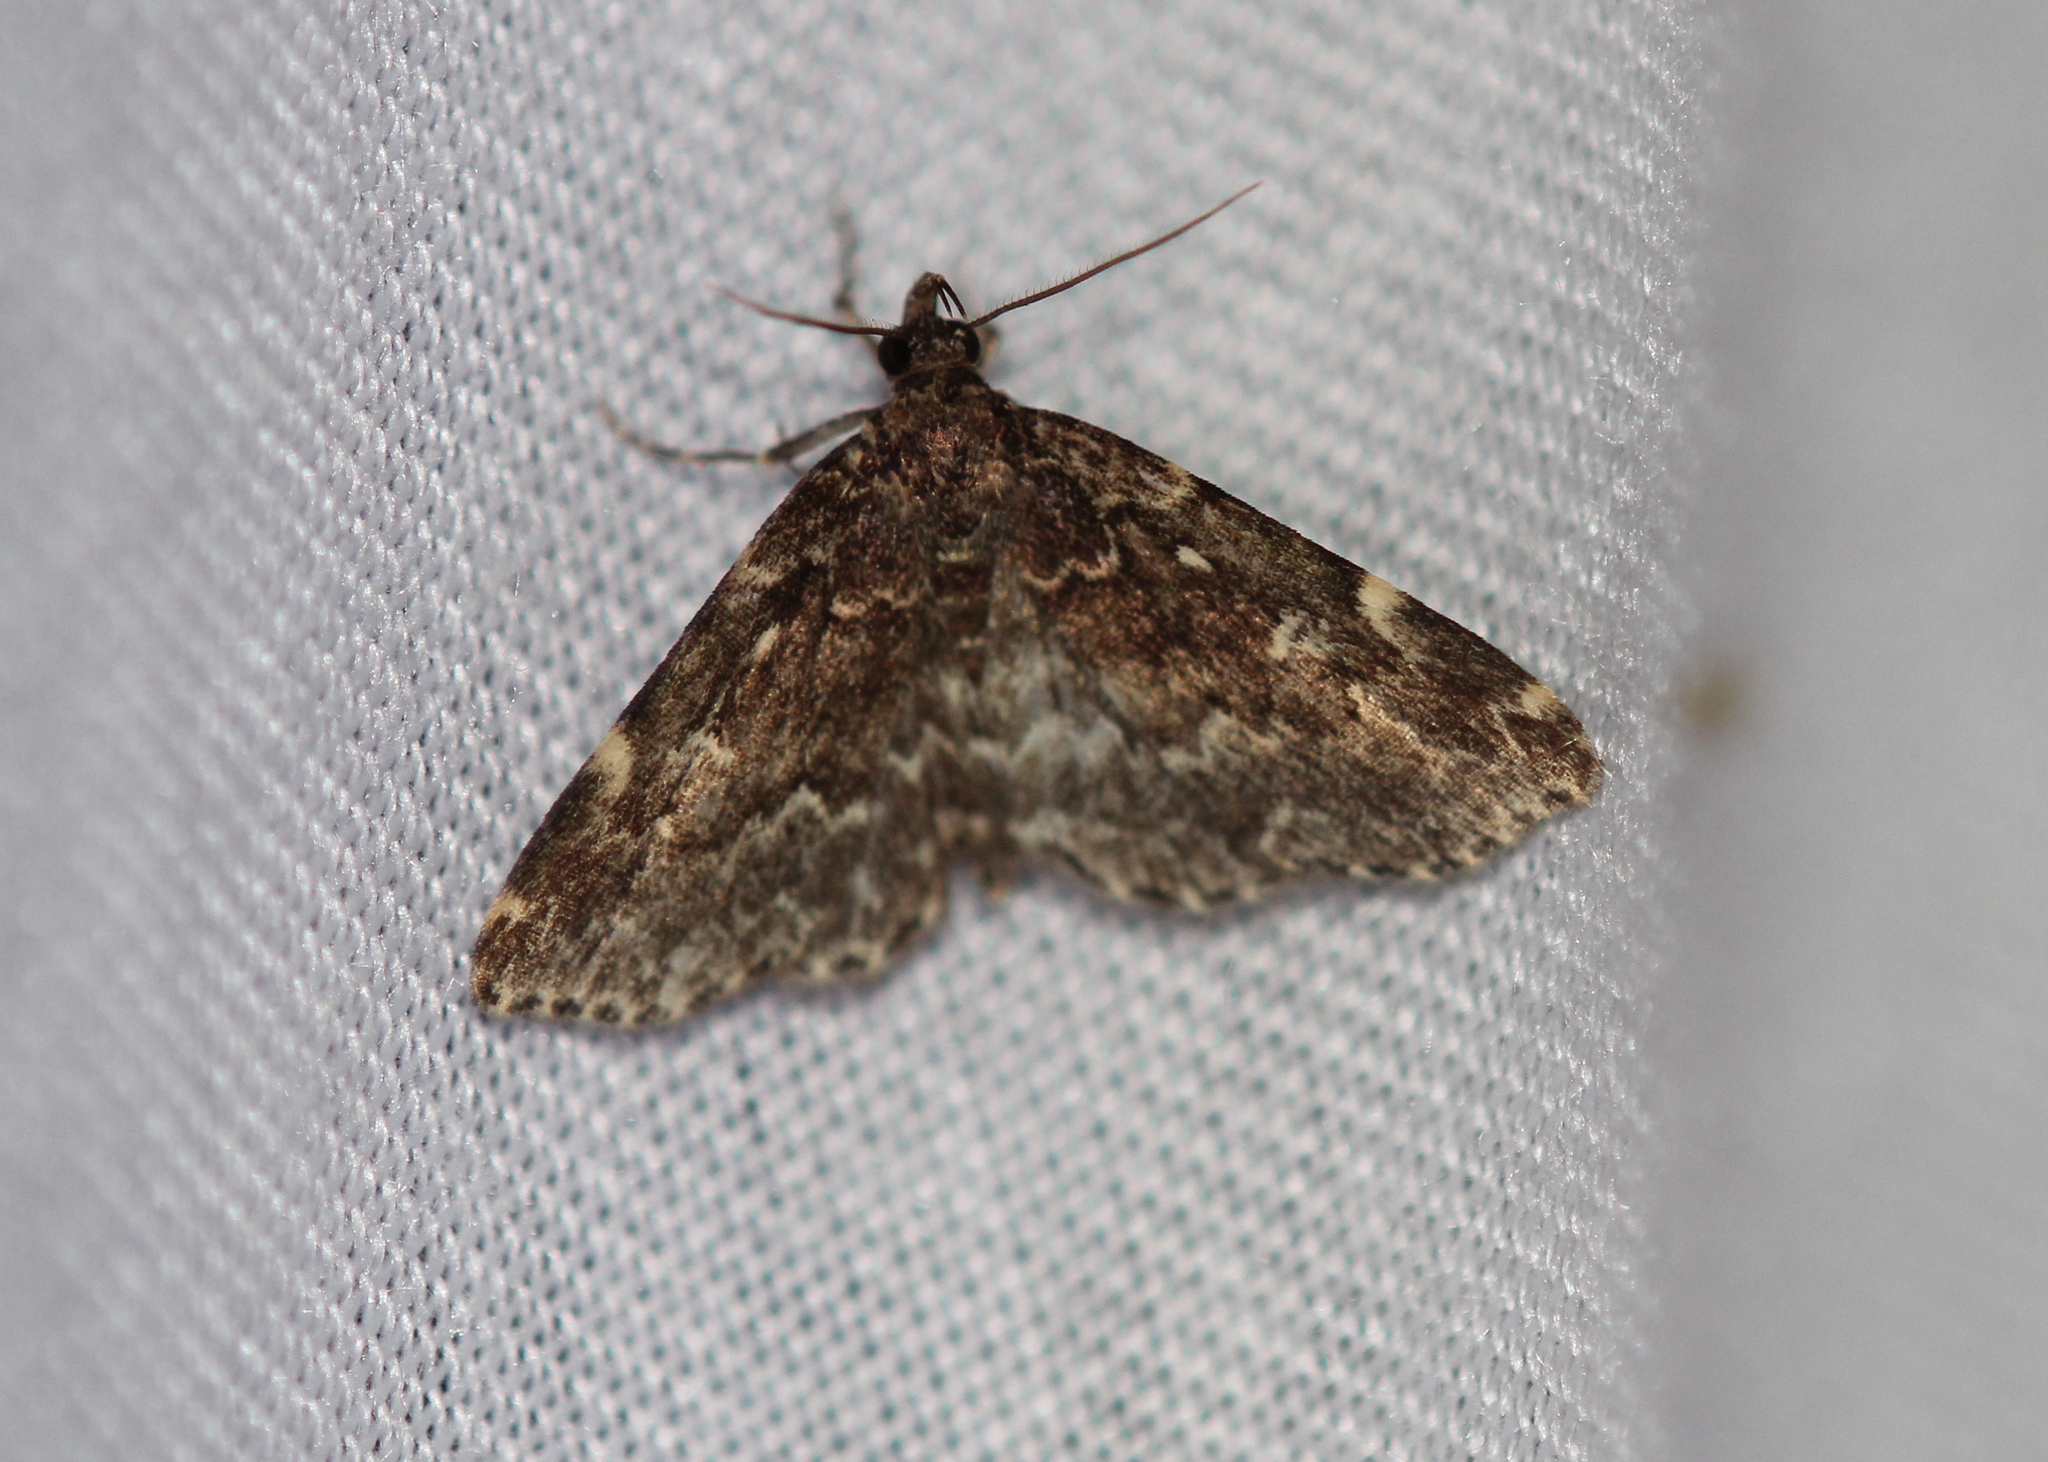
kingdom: Animalia
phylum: Arthropoda
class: Insecta
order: Lepidoptera
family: Erebidae
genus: Idia
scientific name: Idia scobialis
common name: Smoky idia moth
